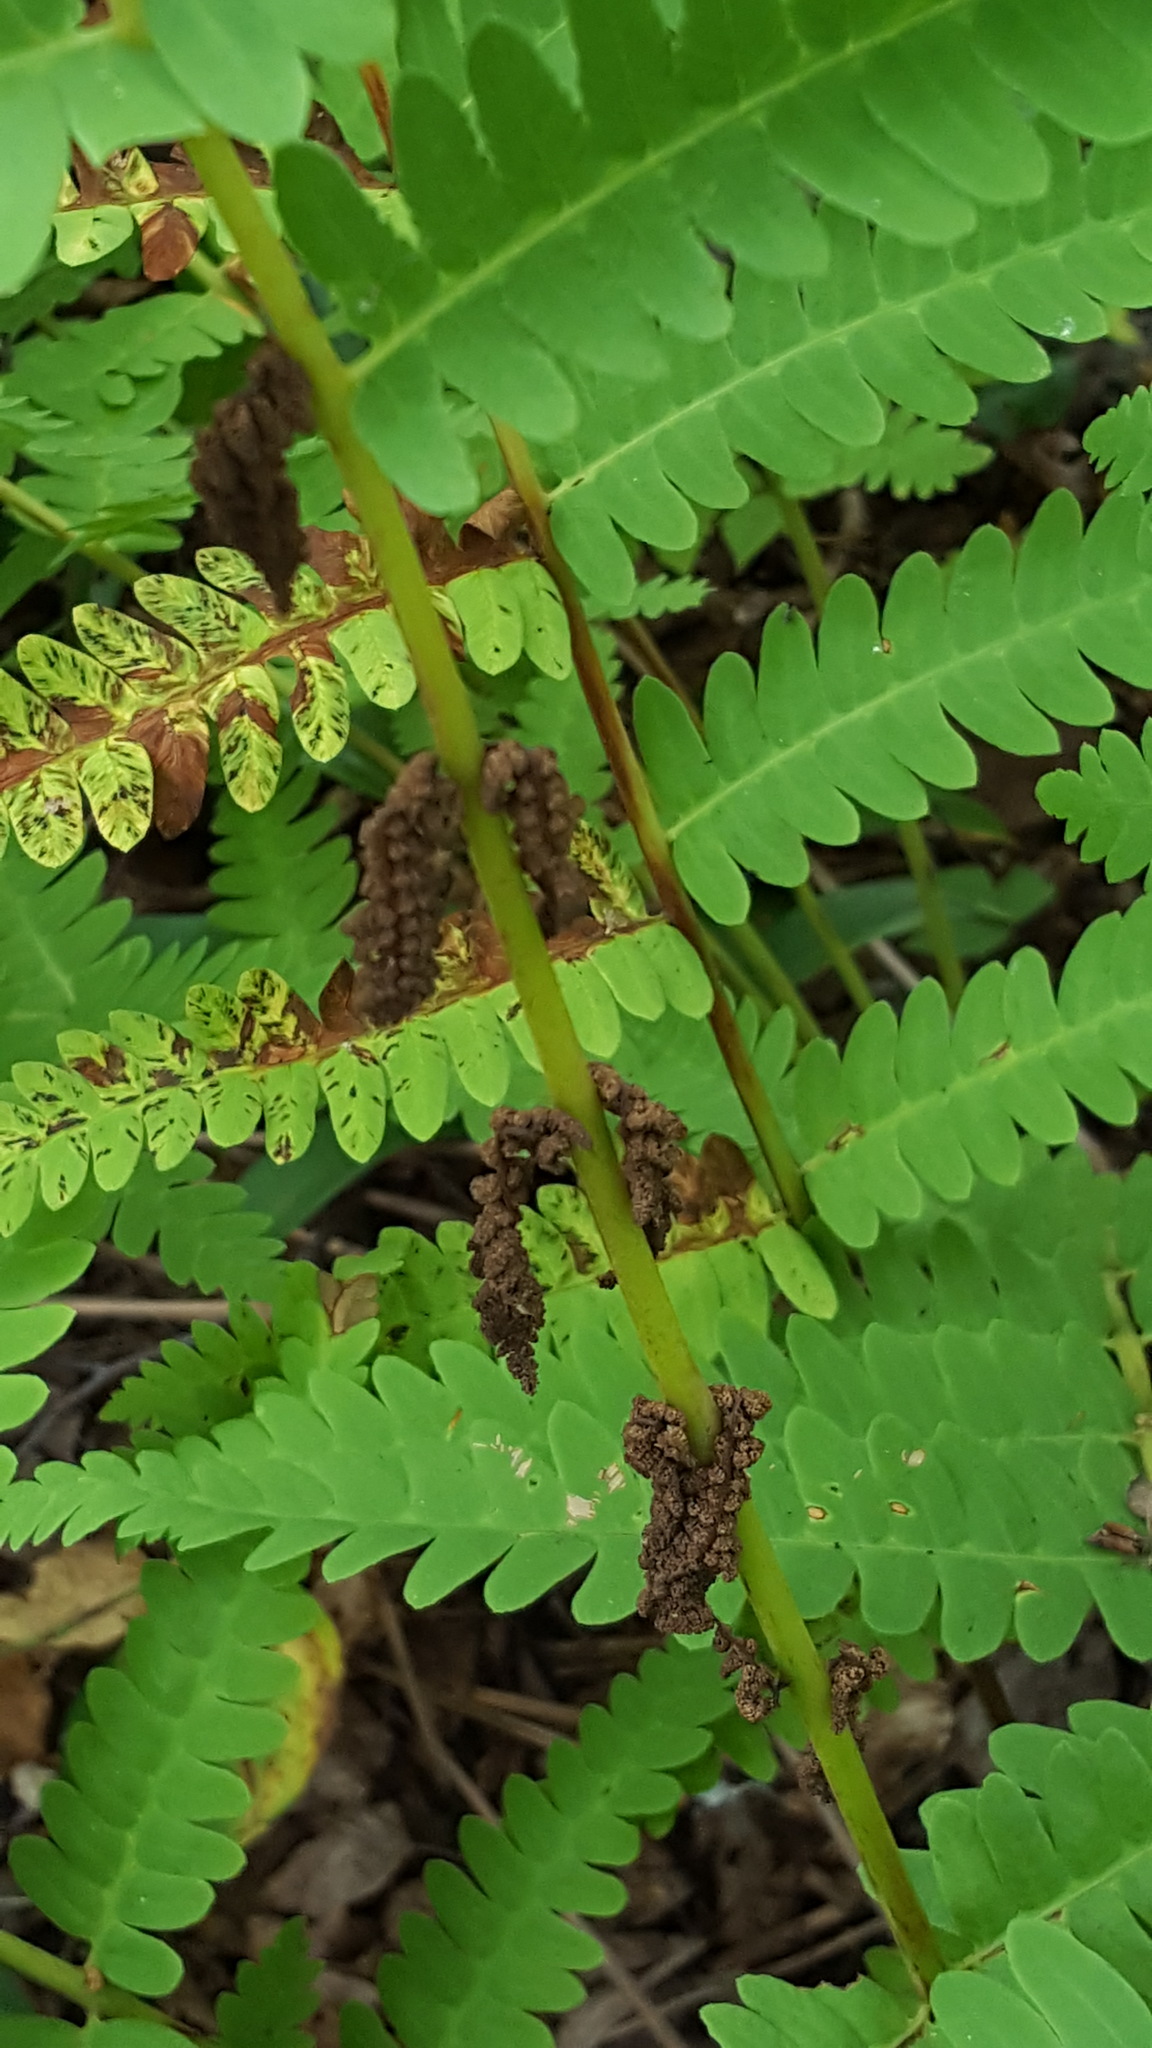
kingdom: Plantae
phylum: Tracheophyta
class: Polypodiopsida
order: Osmundales
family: Osmundaceae
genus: Claytosmunda
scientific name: Claytosmunda claytoniana
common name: Clayton's fern
